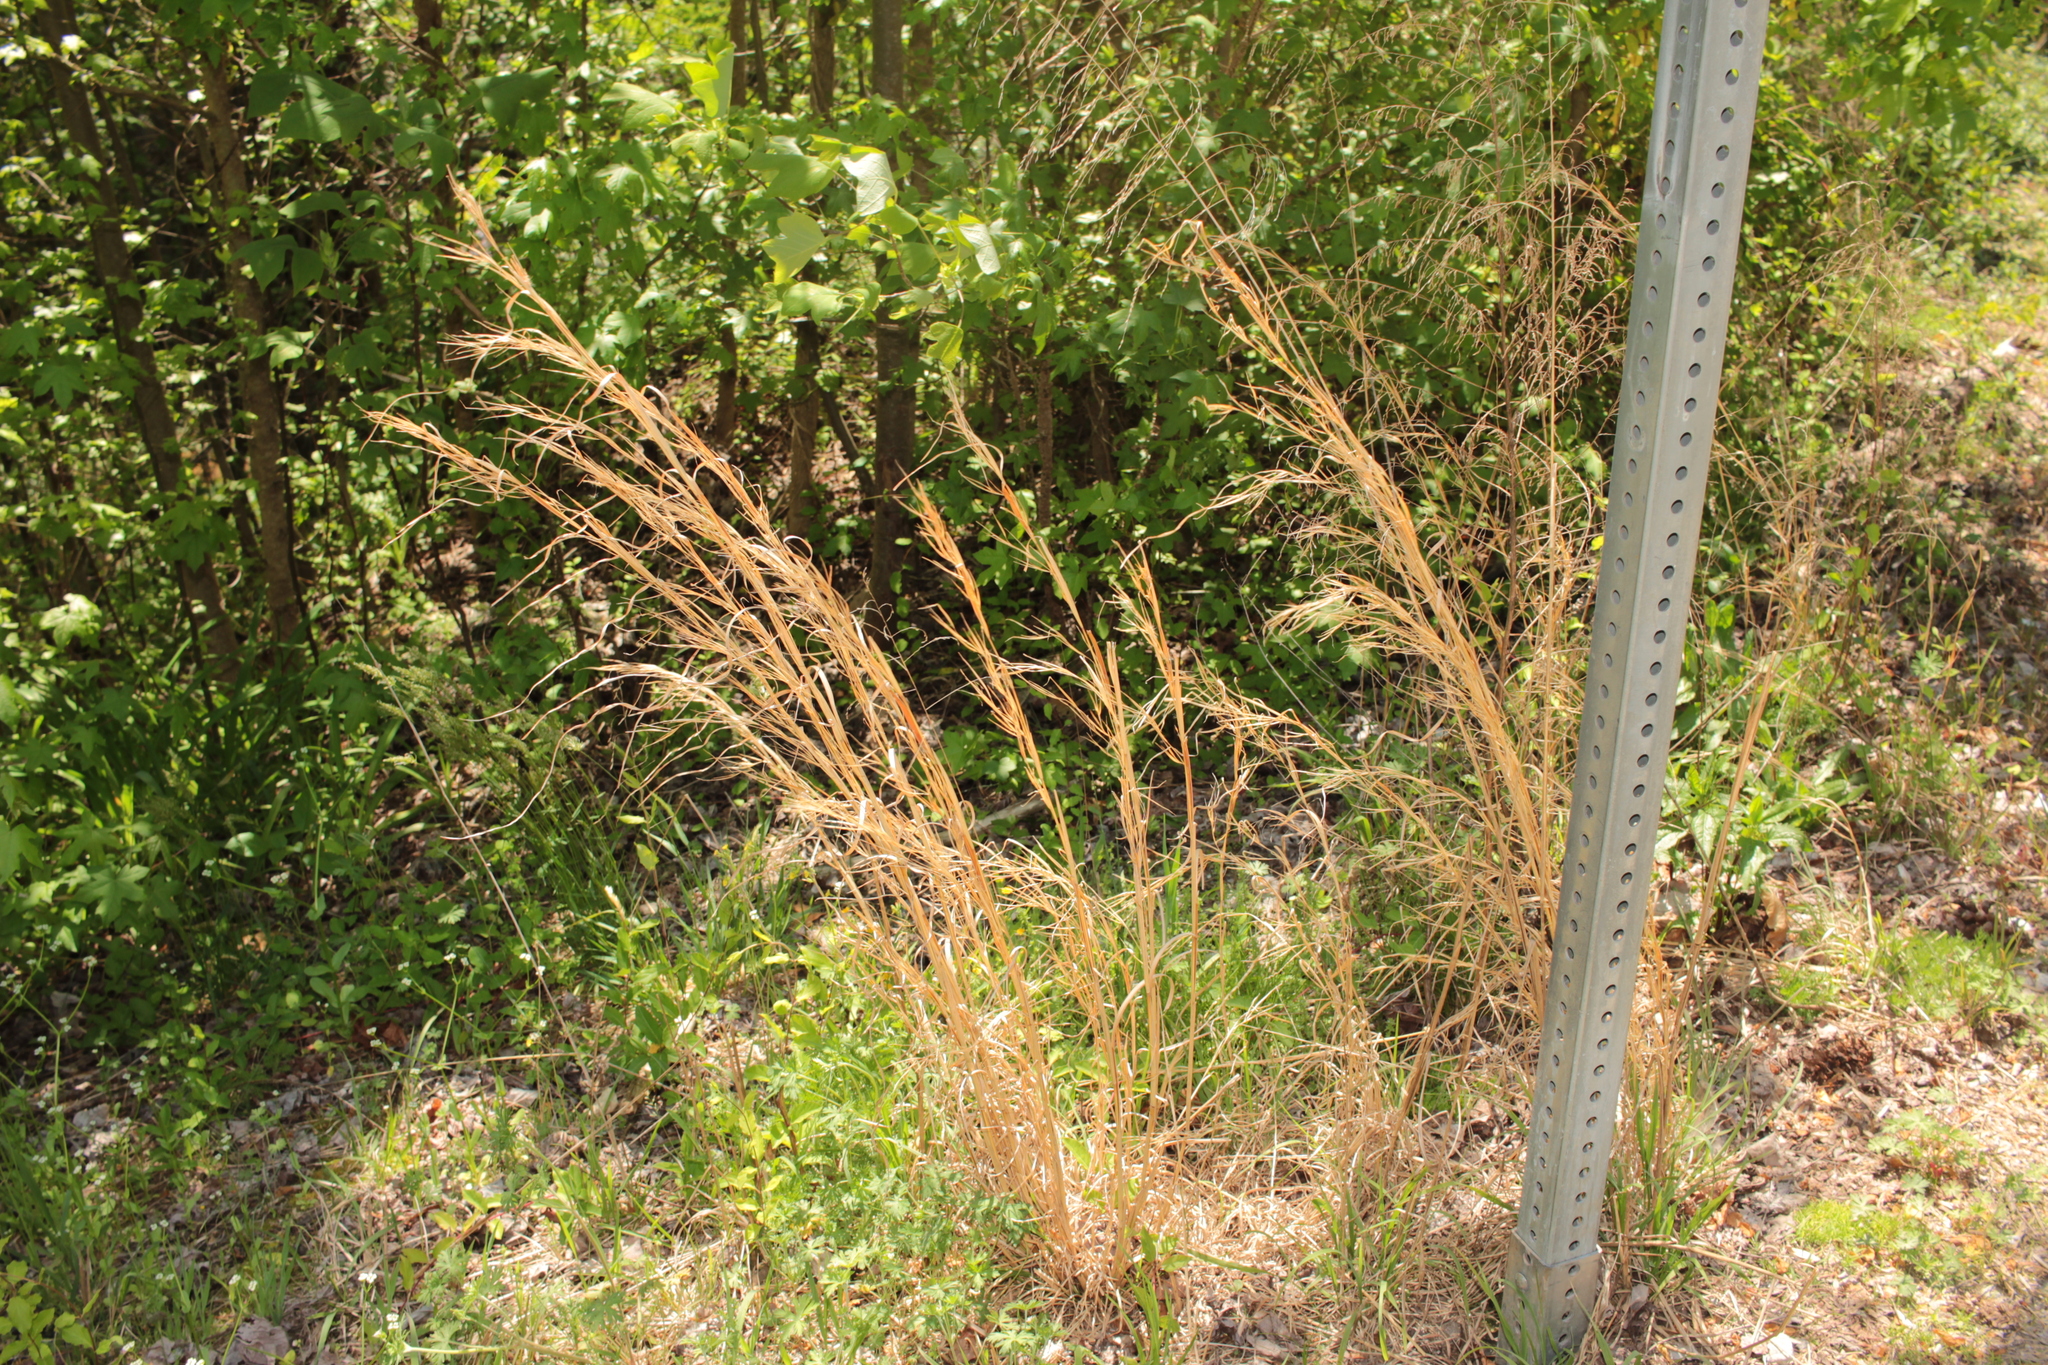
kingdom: Plantae
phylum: Tracheophyta
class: Liliopsida
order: Poales
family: Poaceae
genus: Andropogon
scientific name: Andropogon virginicus
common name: Broomsedge bluestem
